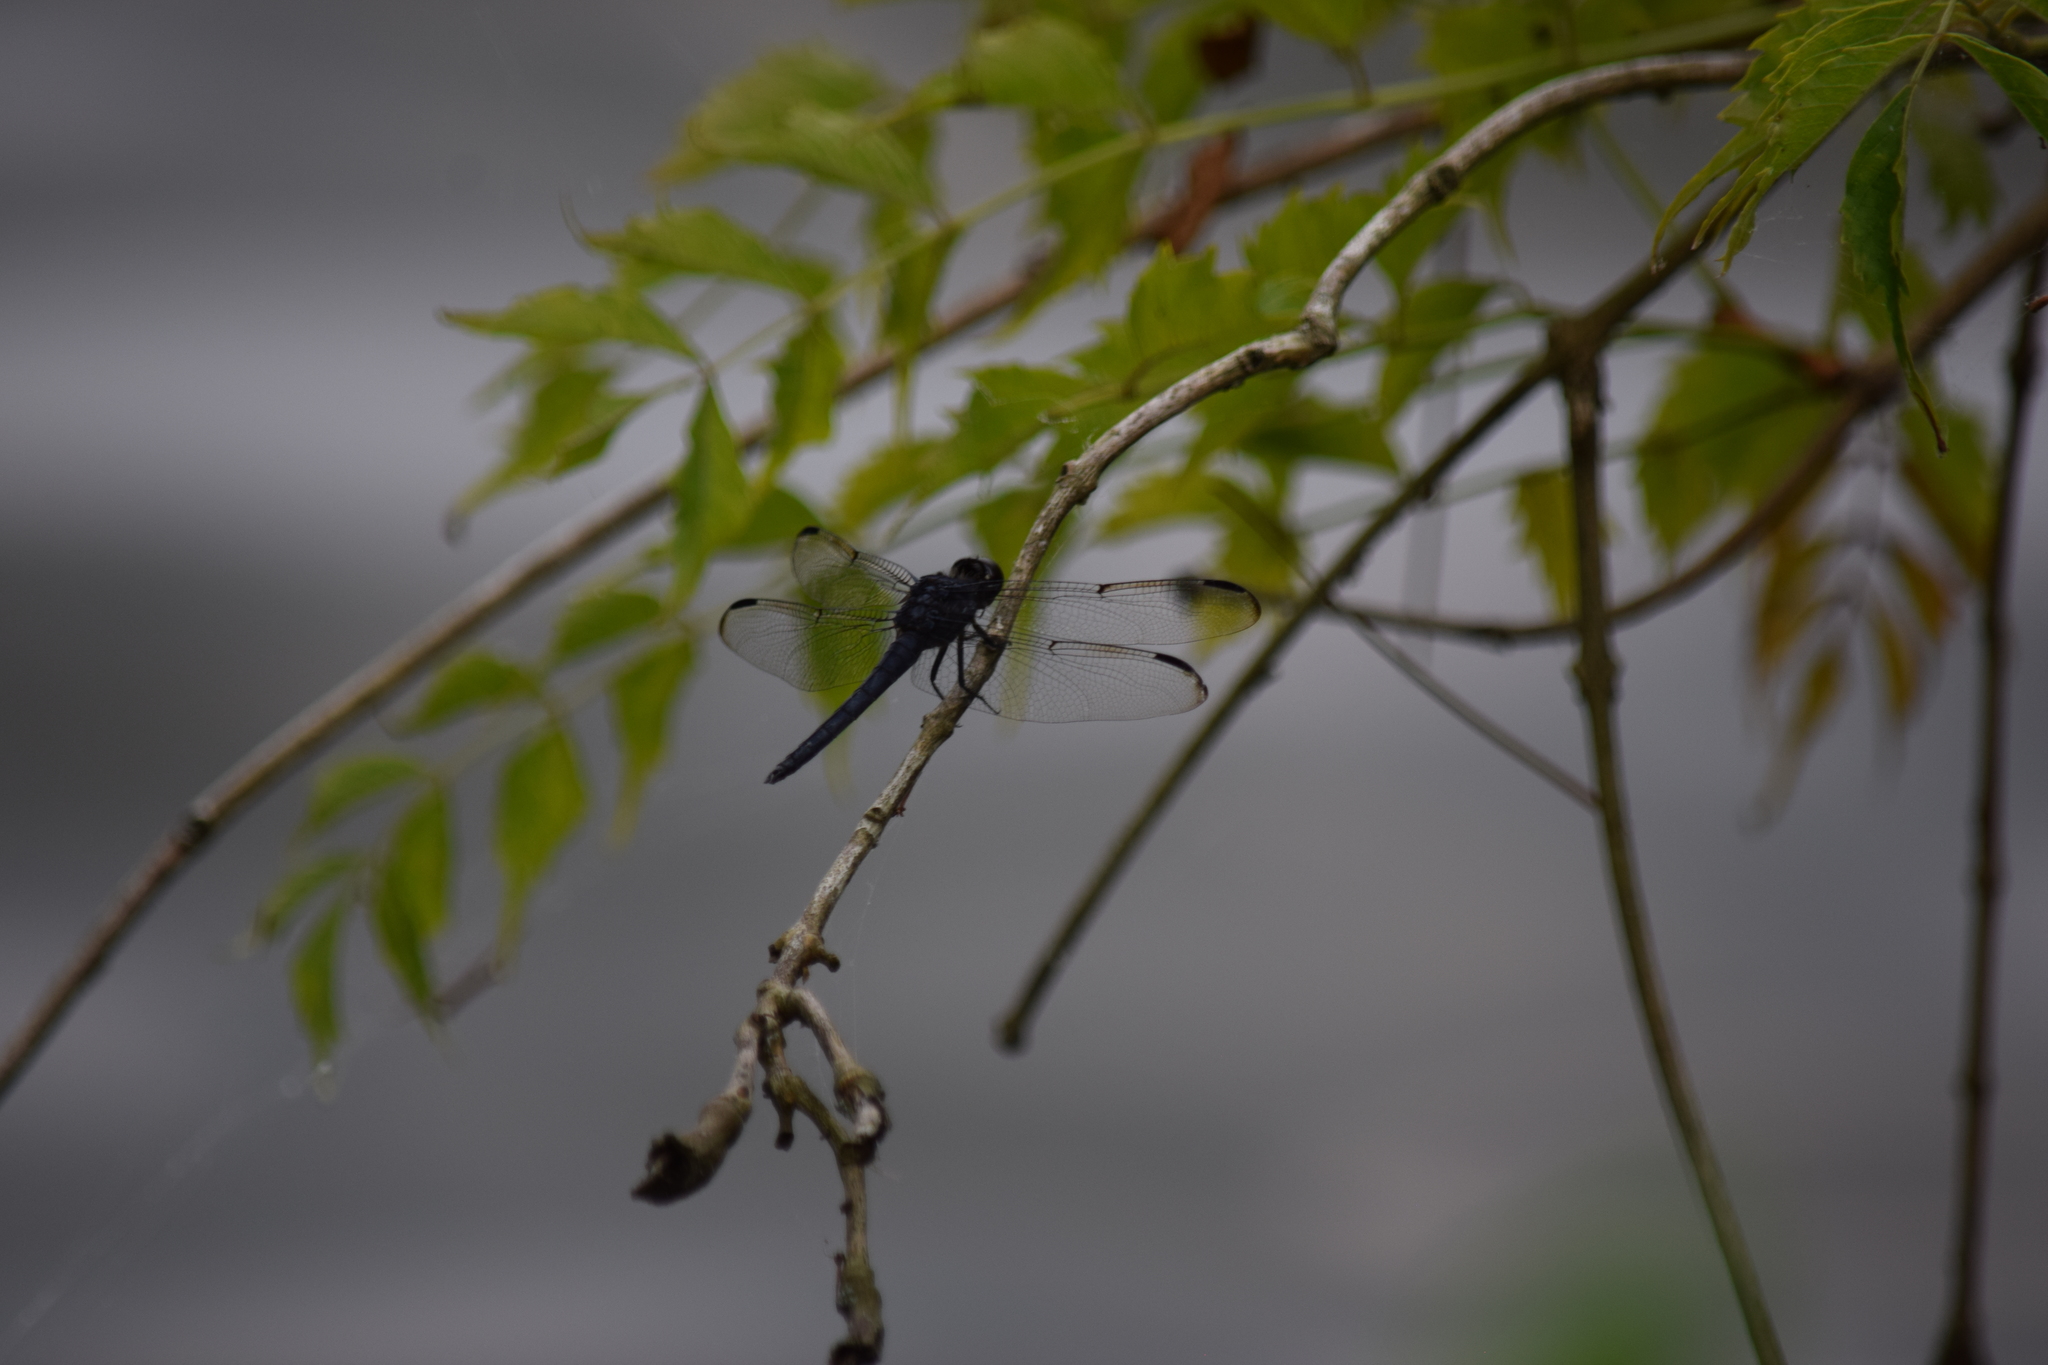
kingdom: Animalia
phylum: Arthropoda
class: Insecta
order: Odonata
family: Libellulidae
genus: Libellula
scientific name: Libellula incesta
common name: Slaty skimmer
